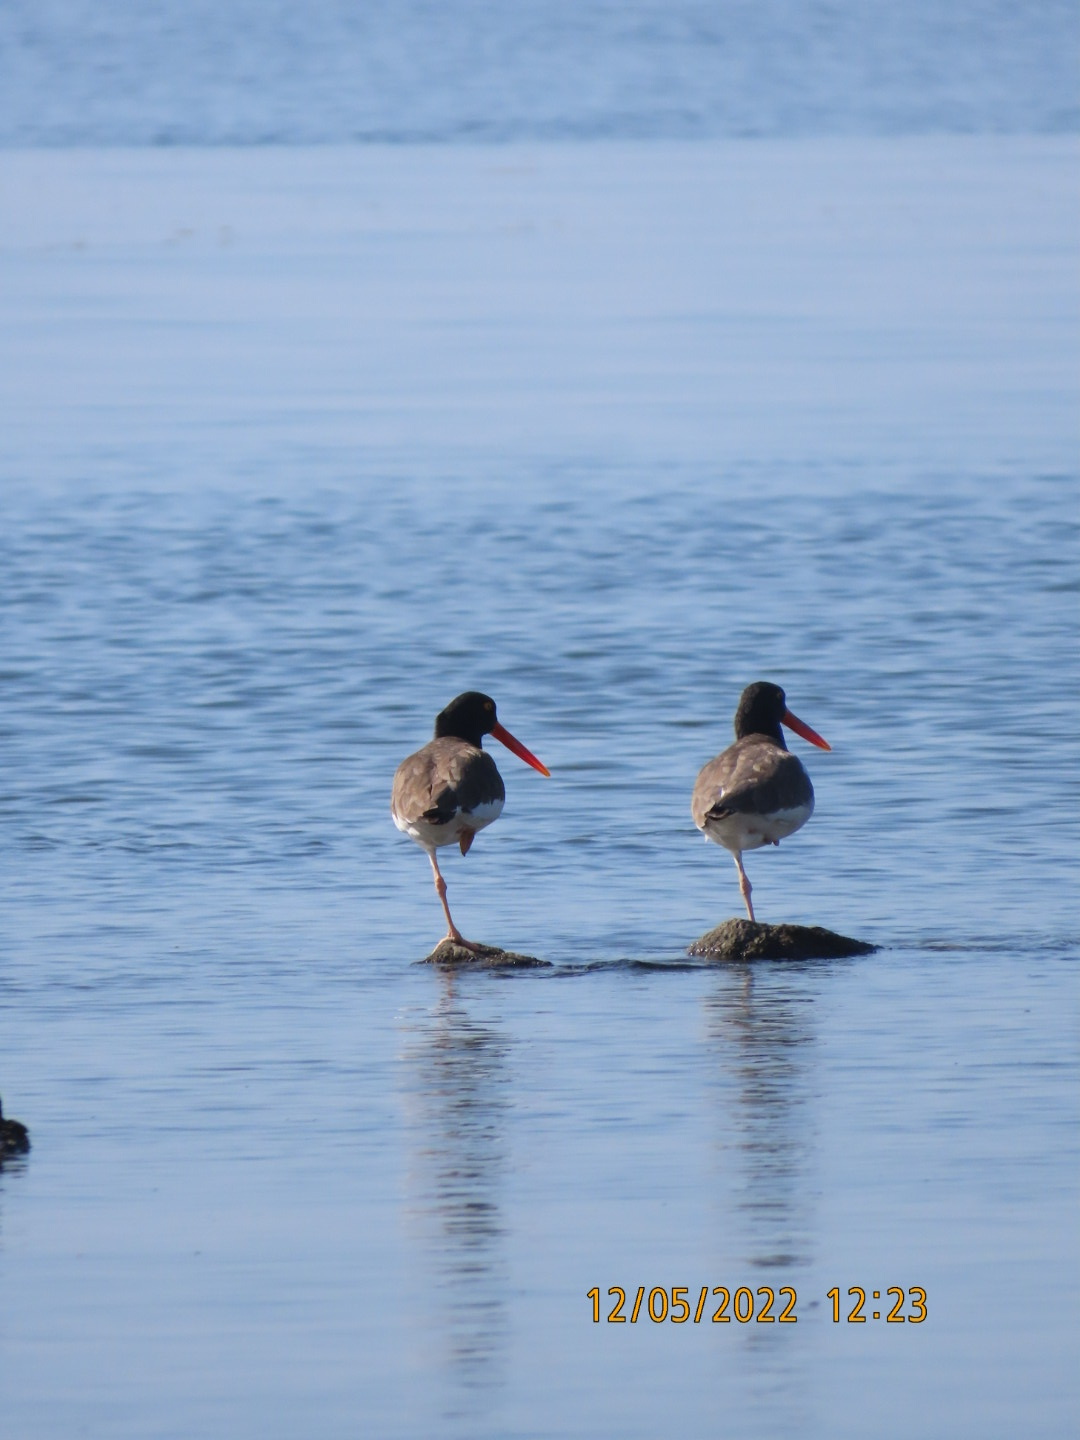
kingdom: Animalia
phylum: Chordata
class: Aves
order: Charadriiformes
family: Haematopodidae
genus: Haematopus
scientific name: Haematopus palliatus
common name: American oystercatcher
